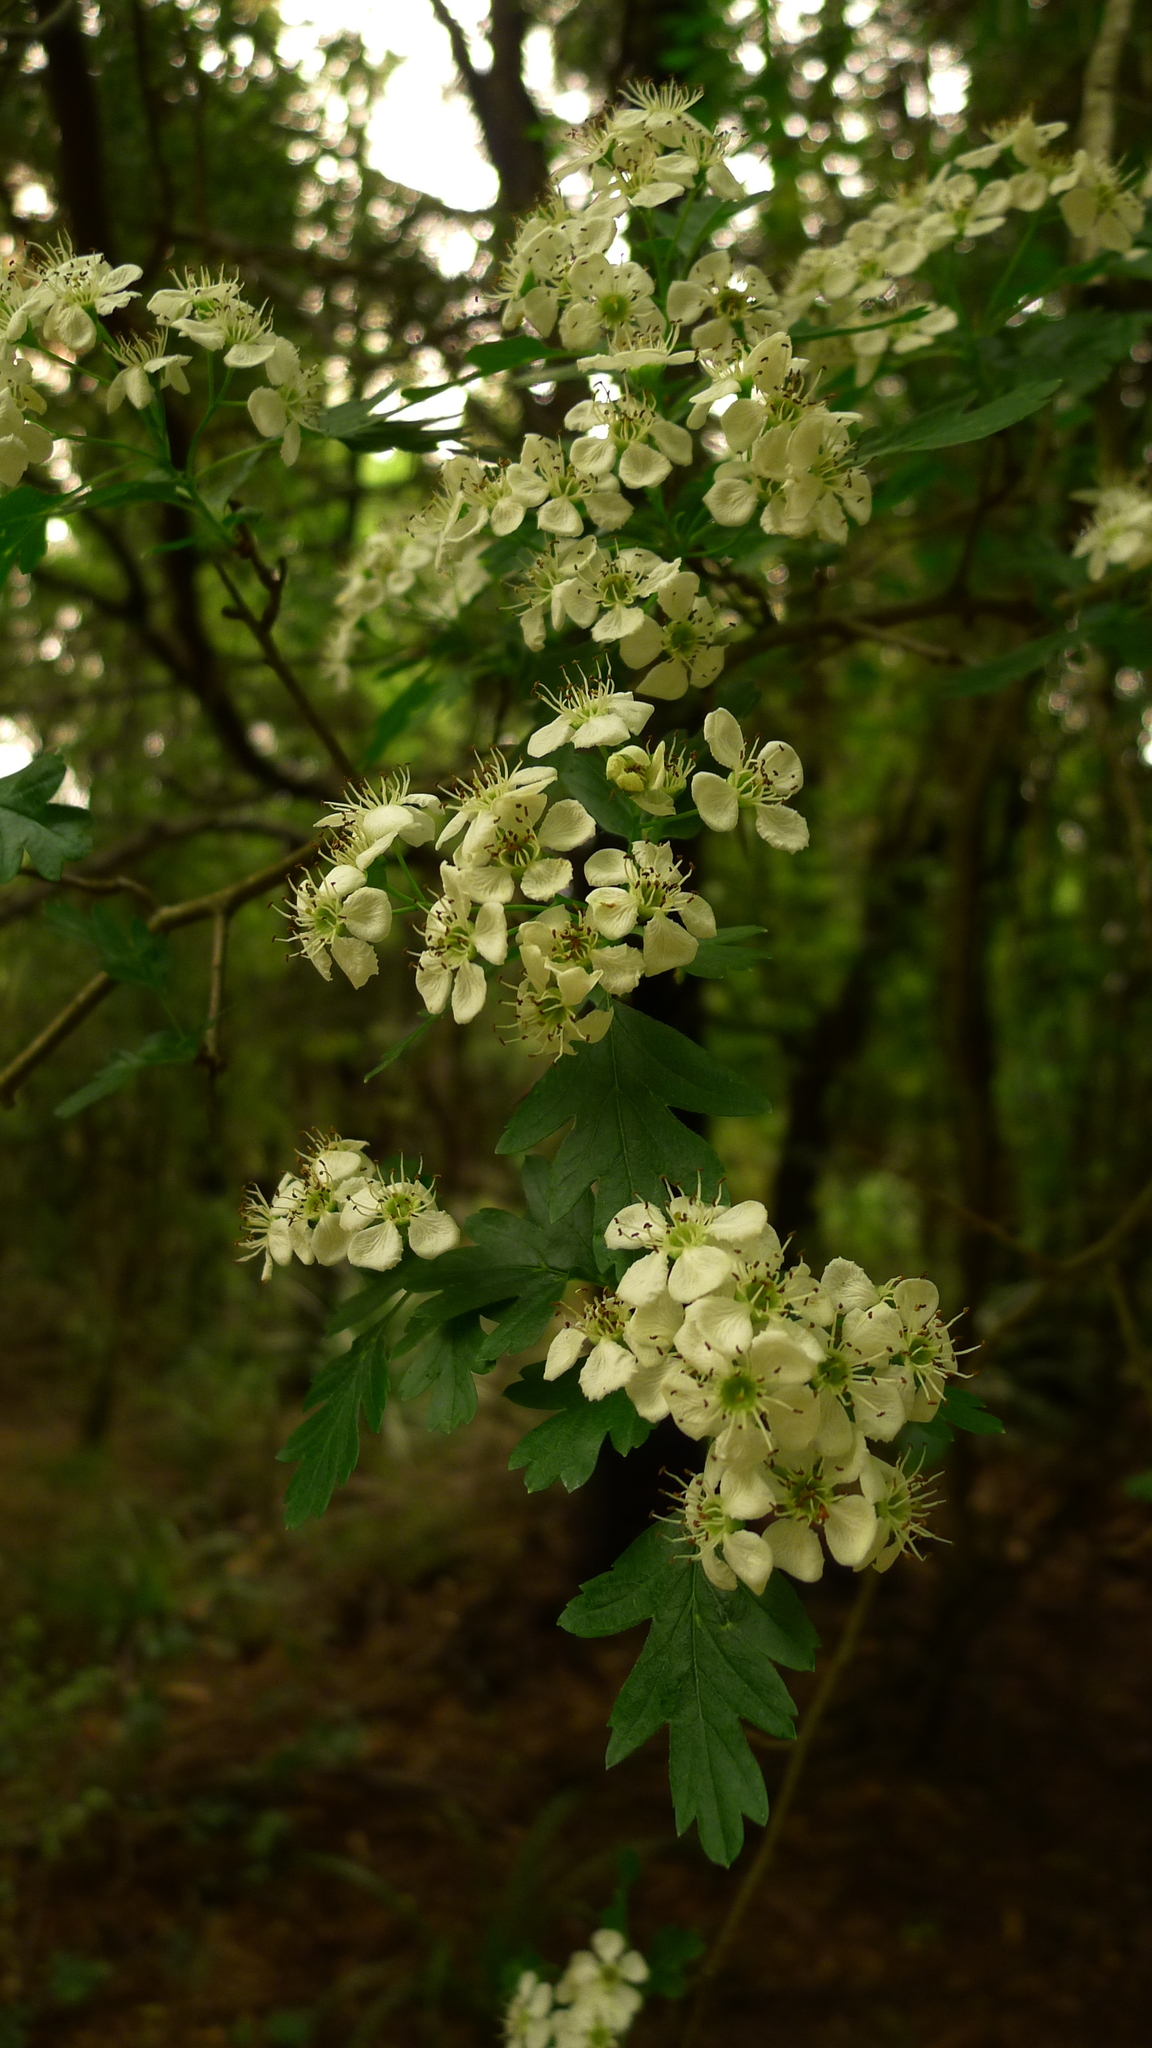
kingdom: Plantae
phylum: Tracheophyta
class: Magnoliopsida
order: Rosales
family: Rosaceae
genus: Crataegus
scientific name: Crataegus monogyna
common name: Hawthorn
